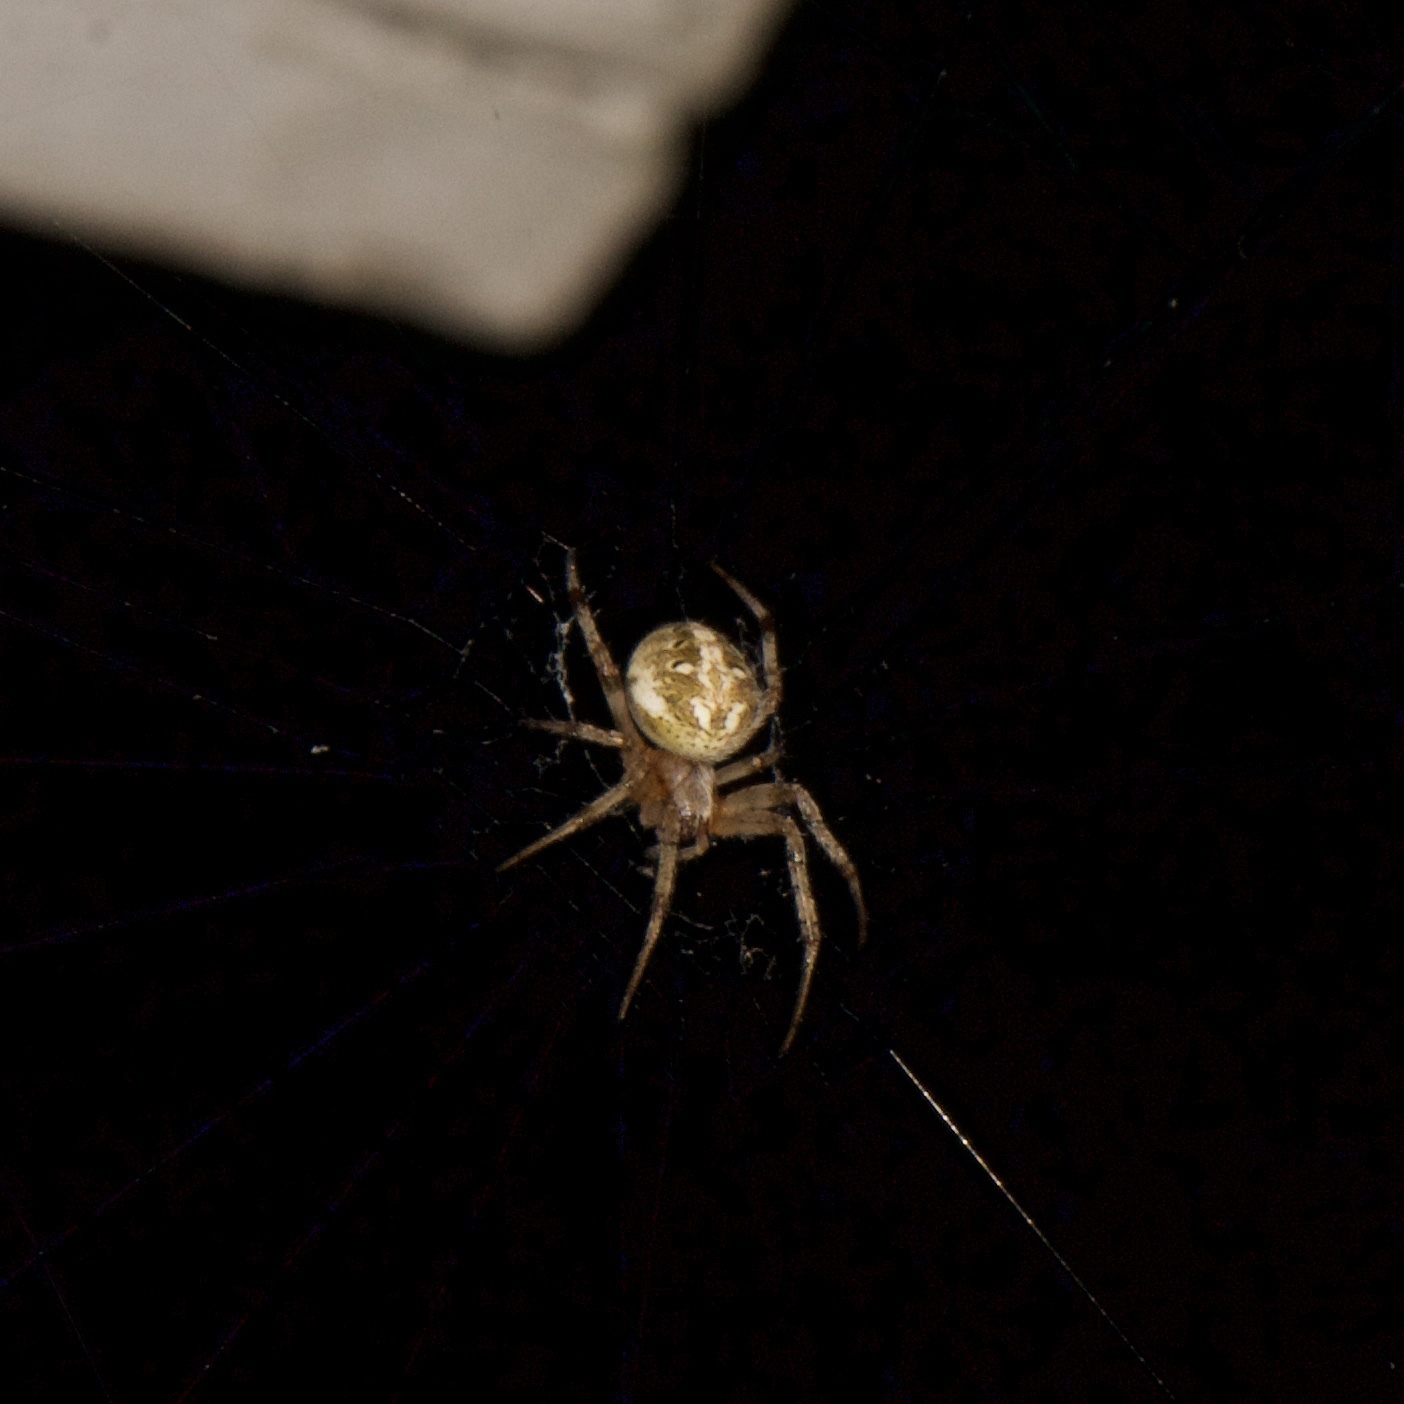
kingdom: Animalia
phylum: Arthropoda
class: Arachnida
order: Araneae
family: Araneidae
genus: Neoscona
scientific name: Neoscona arabesca
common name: Orb weavers
